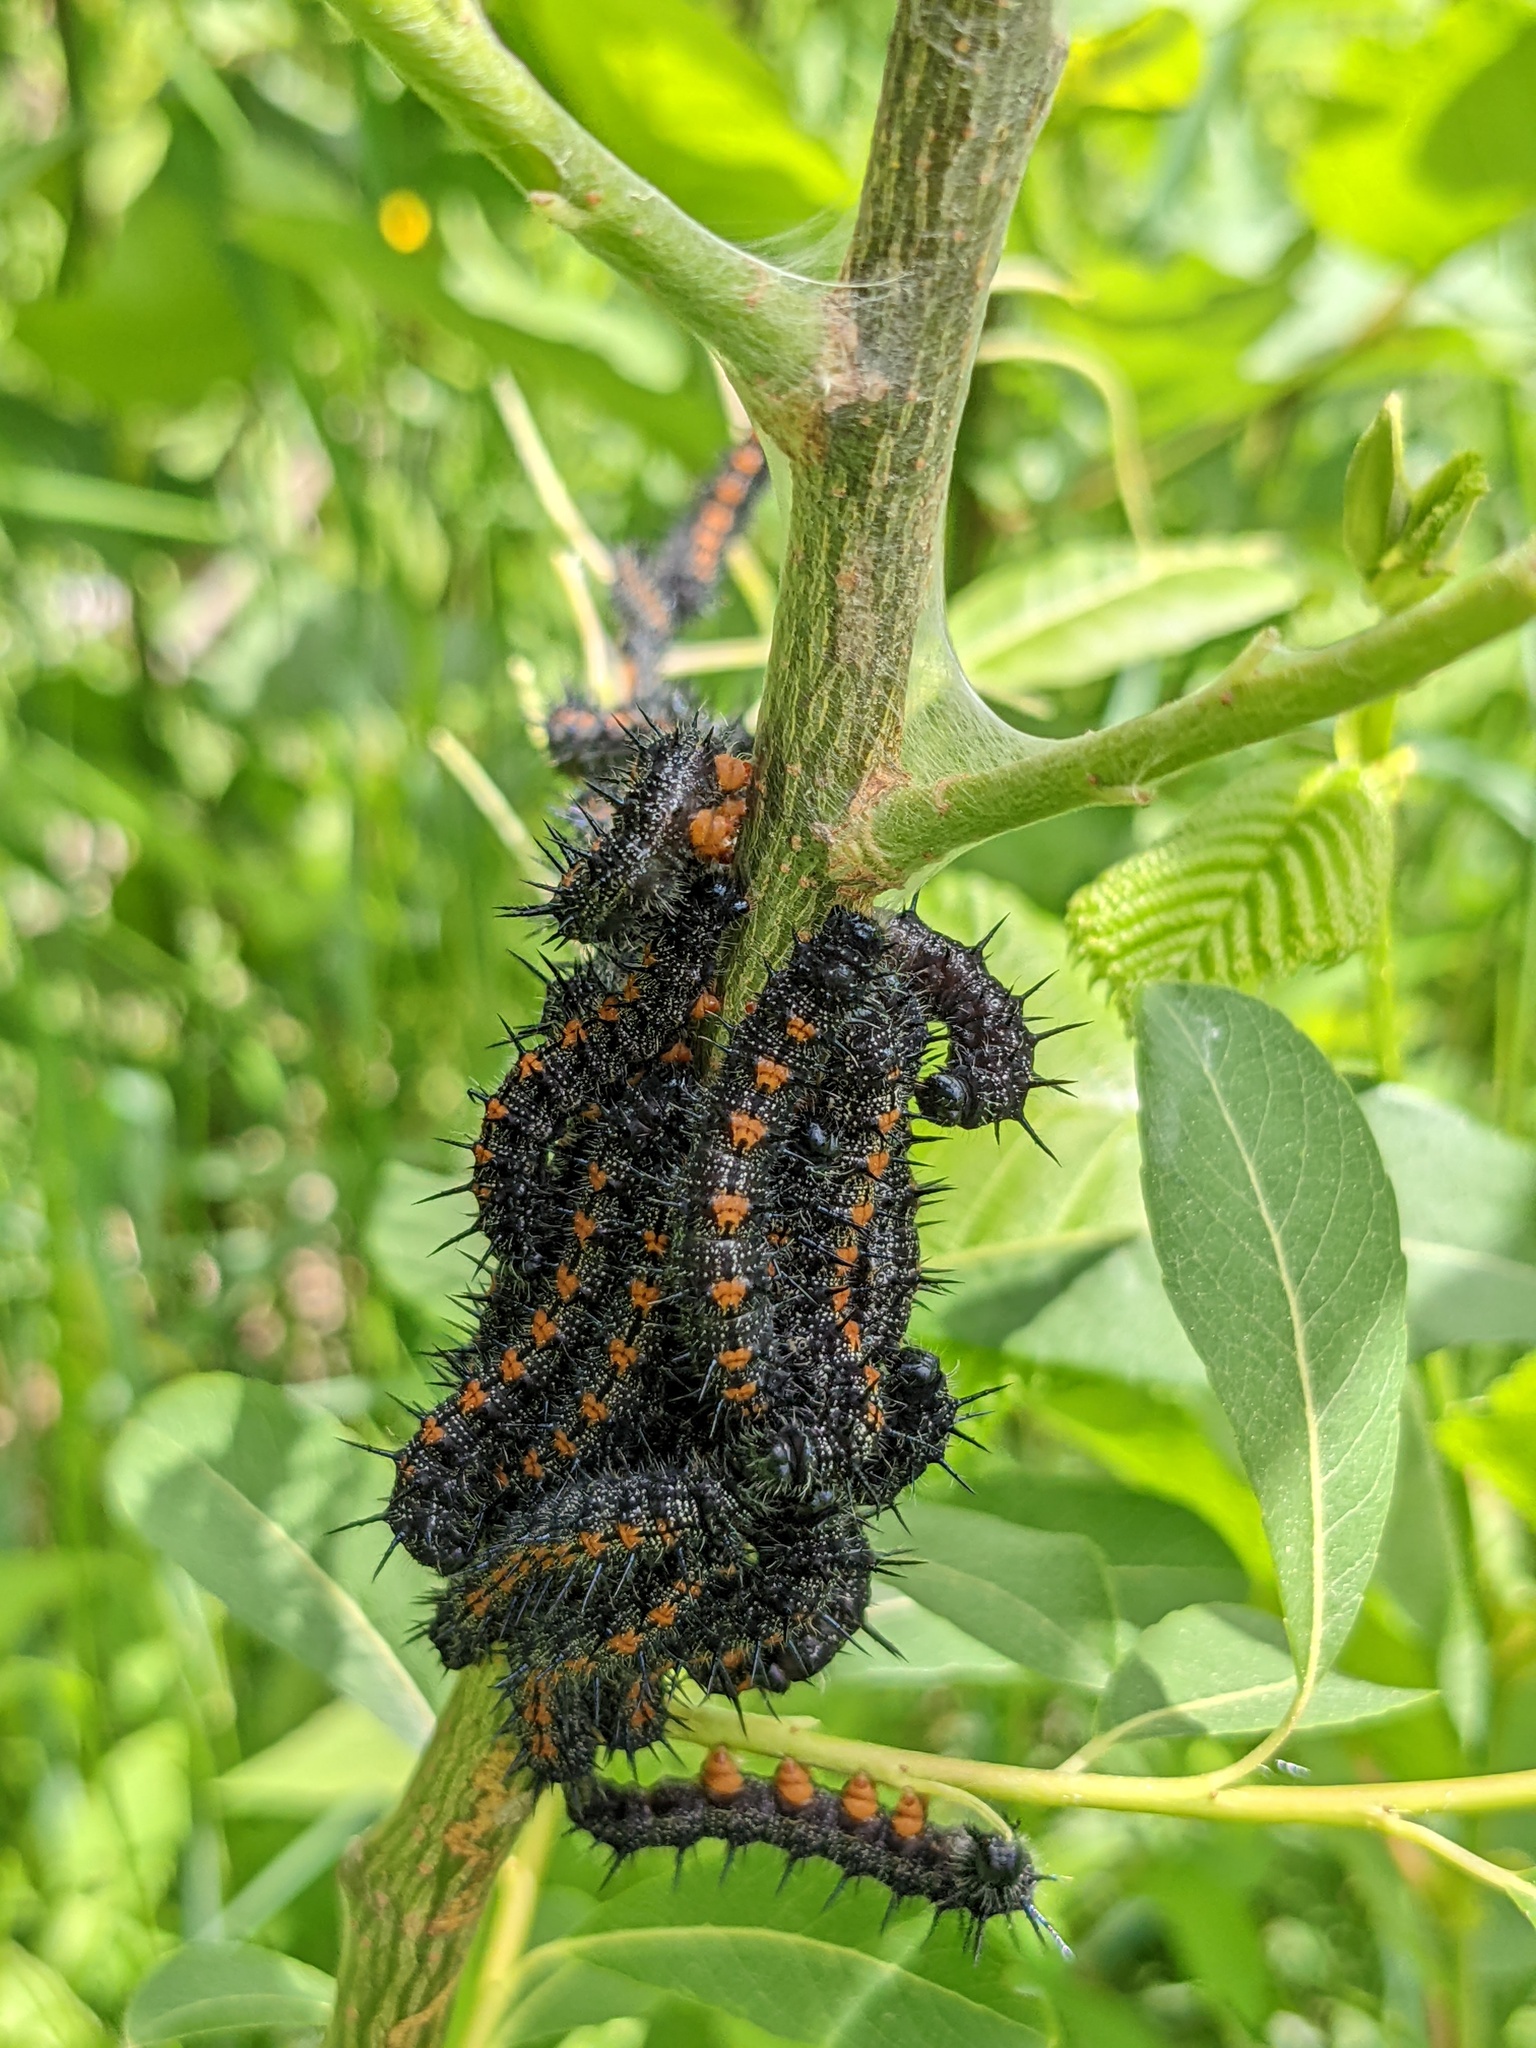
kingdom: Animalia
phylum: Arthropoda
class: Insecta
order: Lepidoptera
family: Nymphalidae
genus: Nymphalis
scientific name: Nymphalis antiopa
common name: Camberwell beauty
